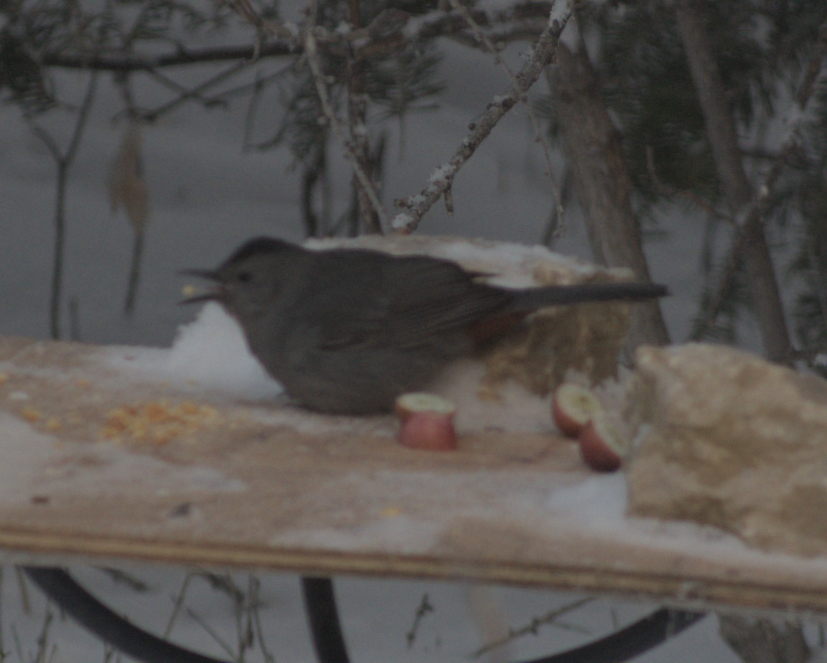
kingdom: Animalia
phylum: Chordata
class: Aves
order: Passeriformes
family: Mimidae
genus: Dumetella
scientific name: Dumetella carolinensis
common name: Gray catbird
